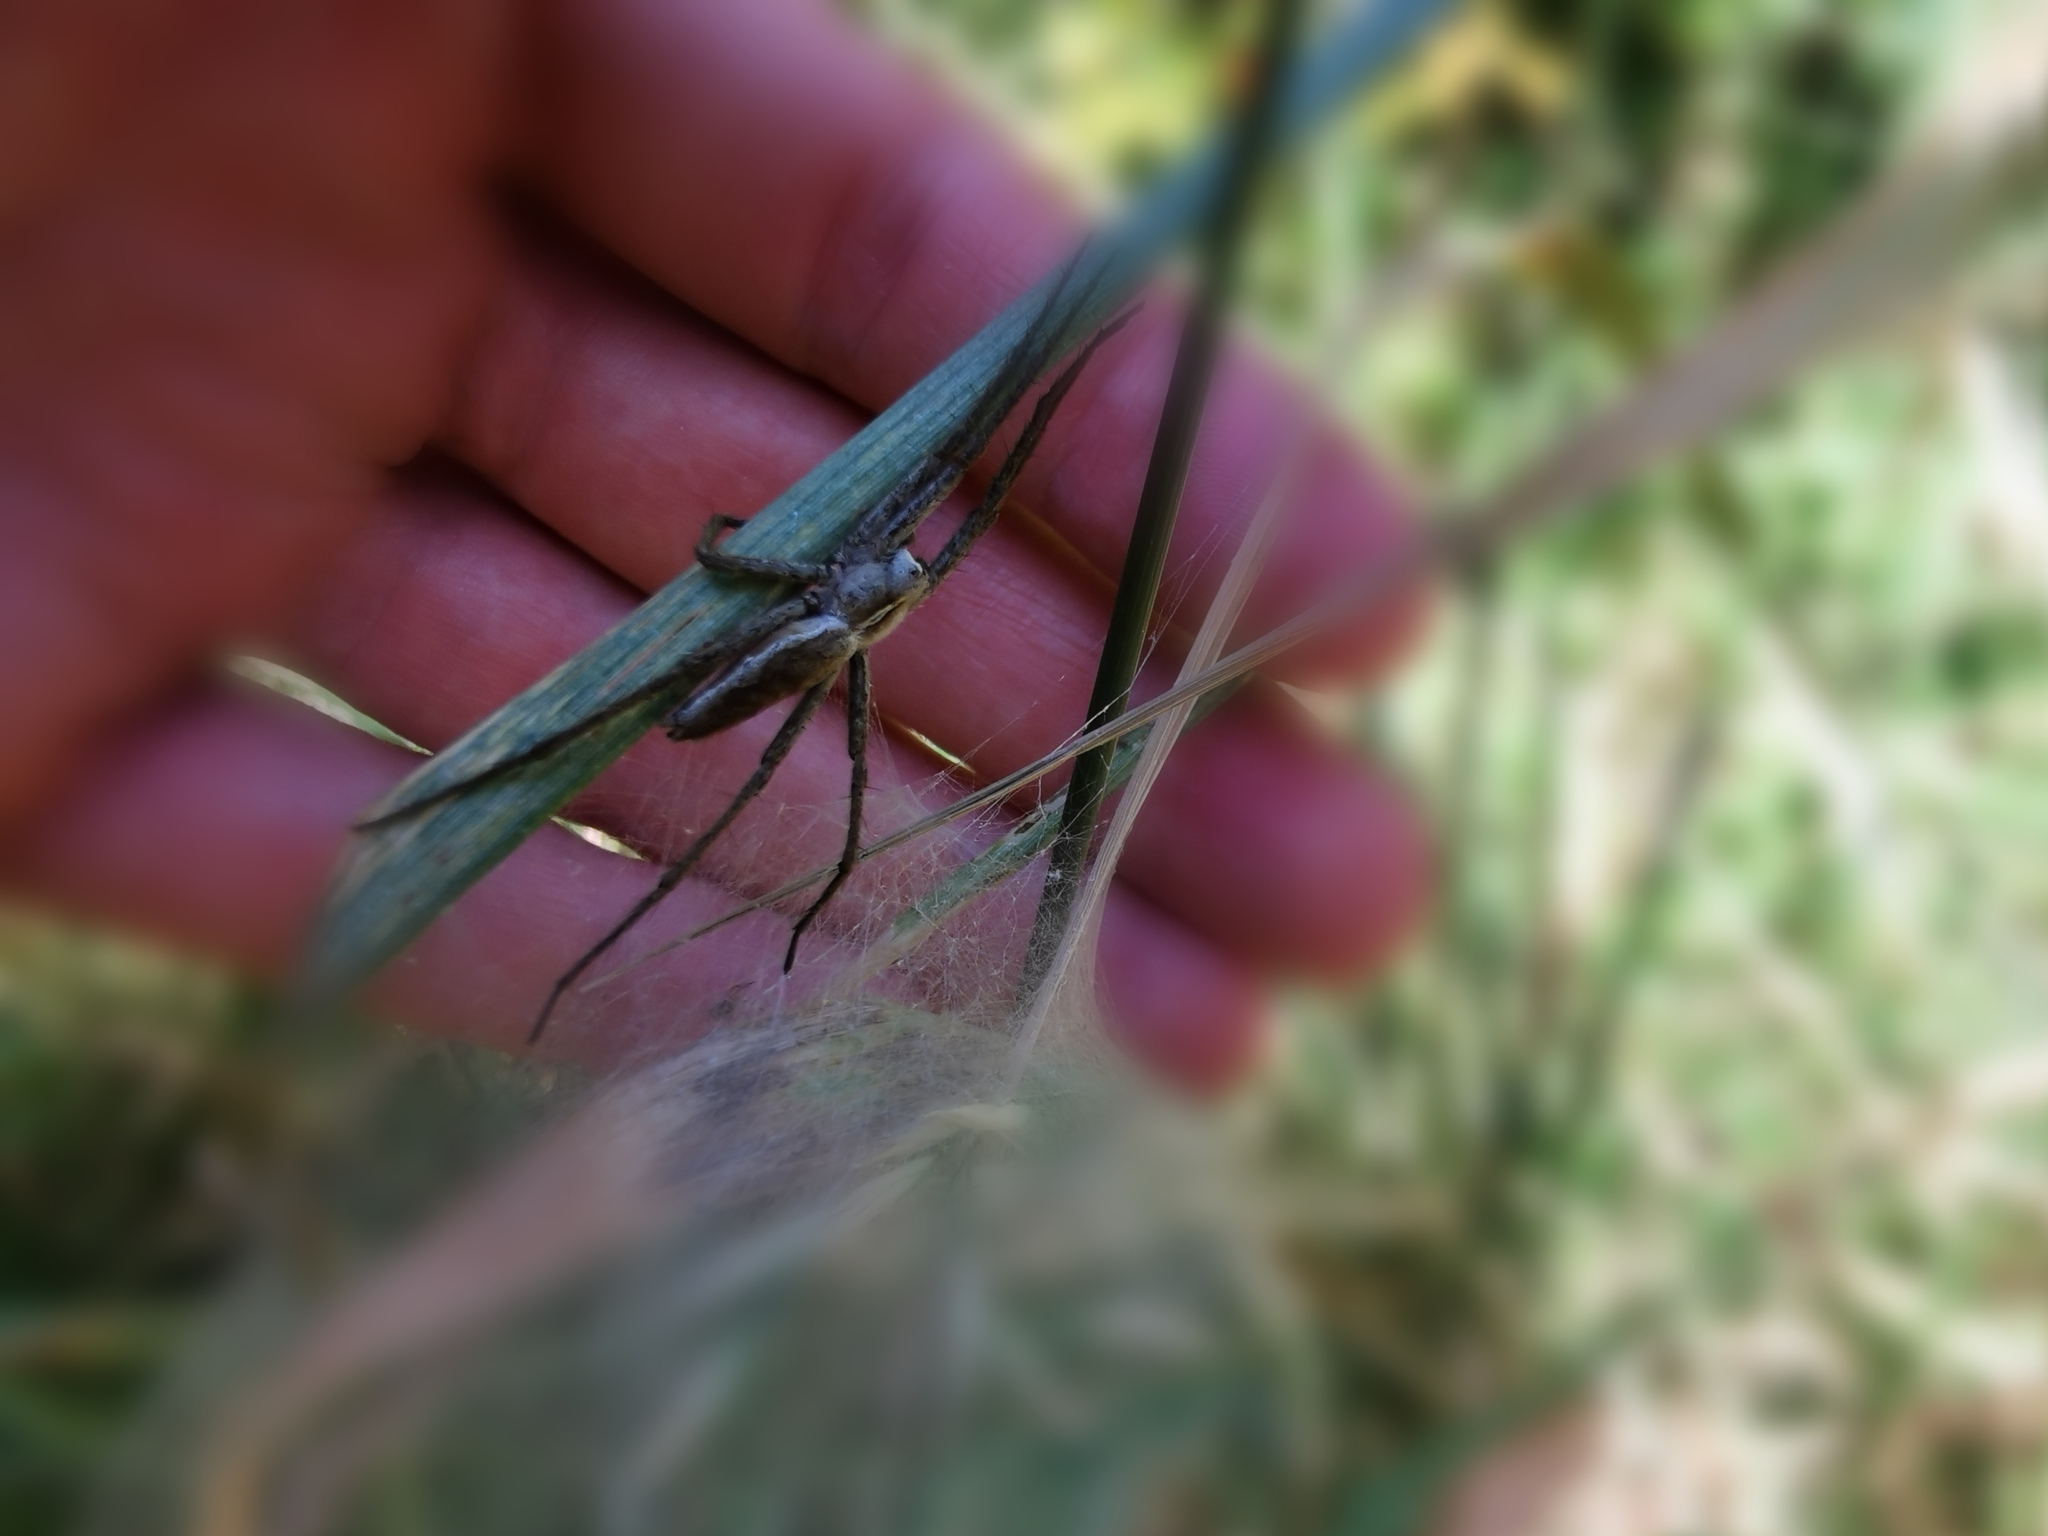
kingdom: Animalia
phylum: Arthropoda
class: Arachnida
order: Araneae
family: Pisauridae
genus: Pisaura
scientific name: Pisaura mirabilis
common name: Tent spider
